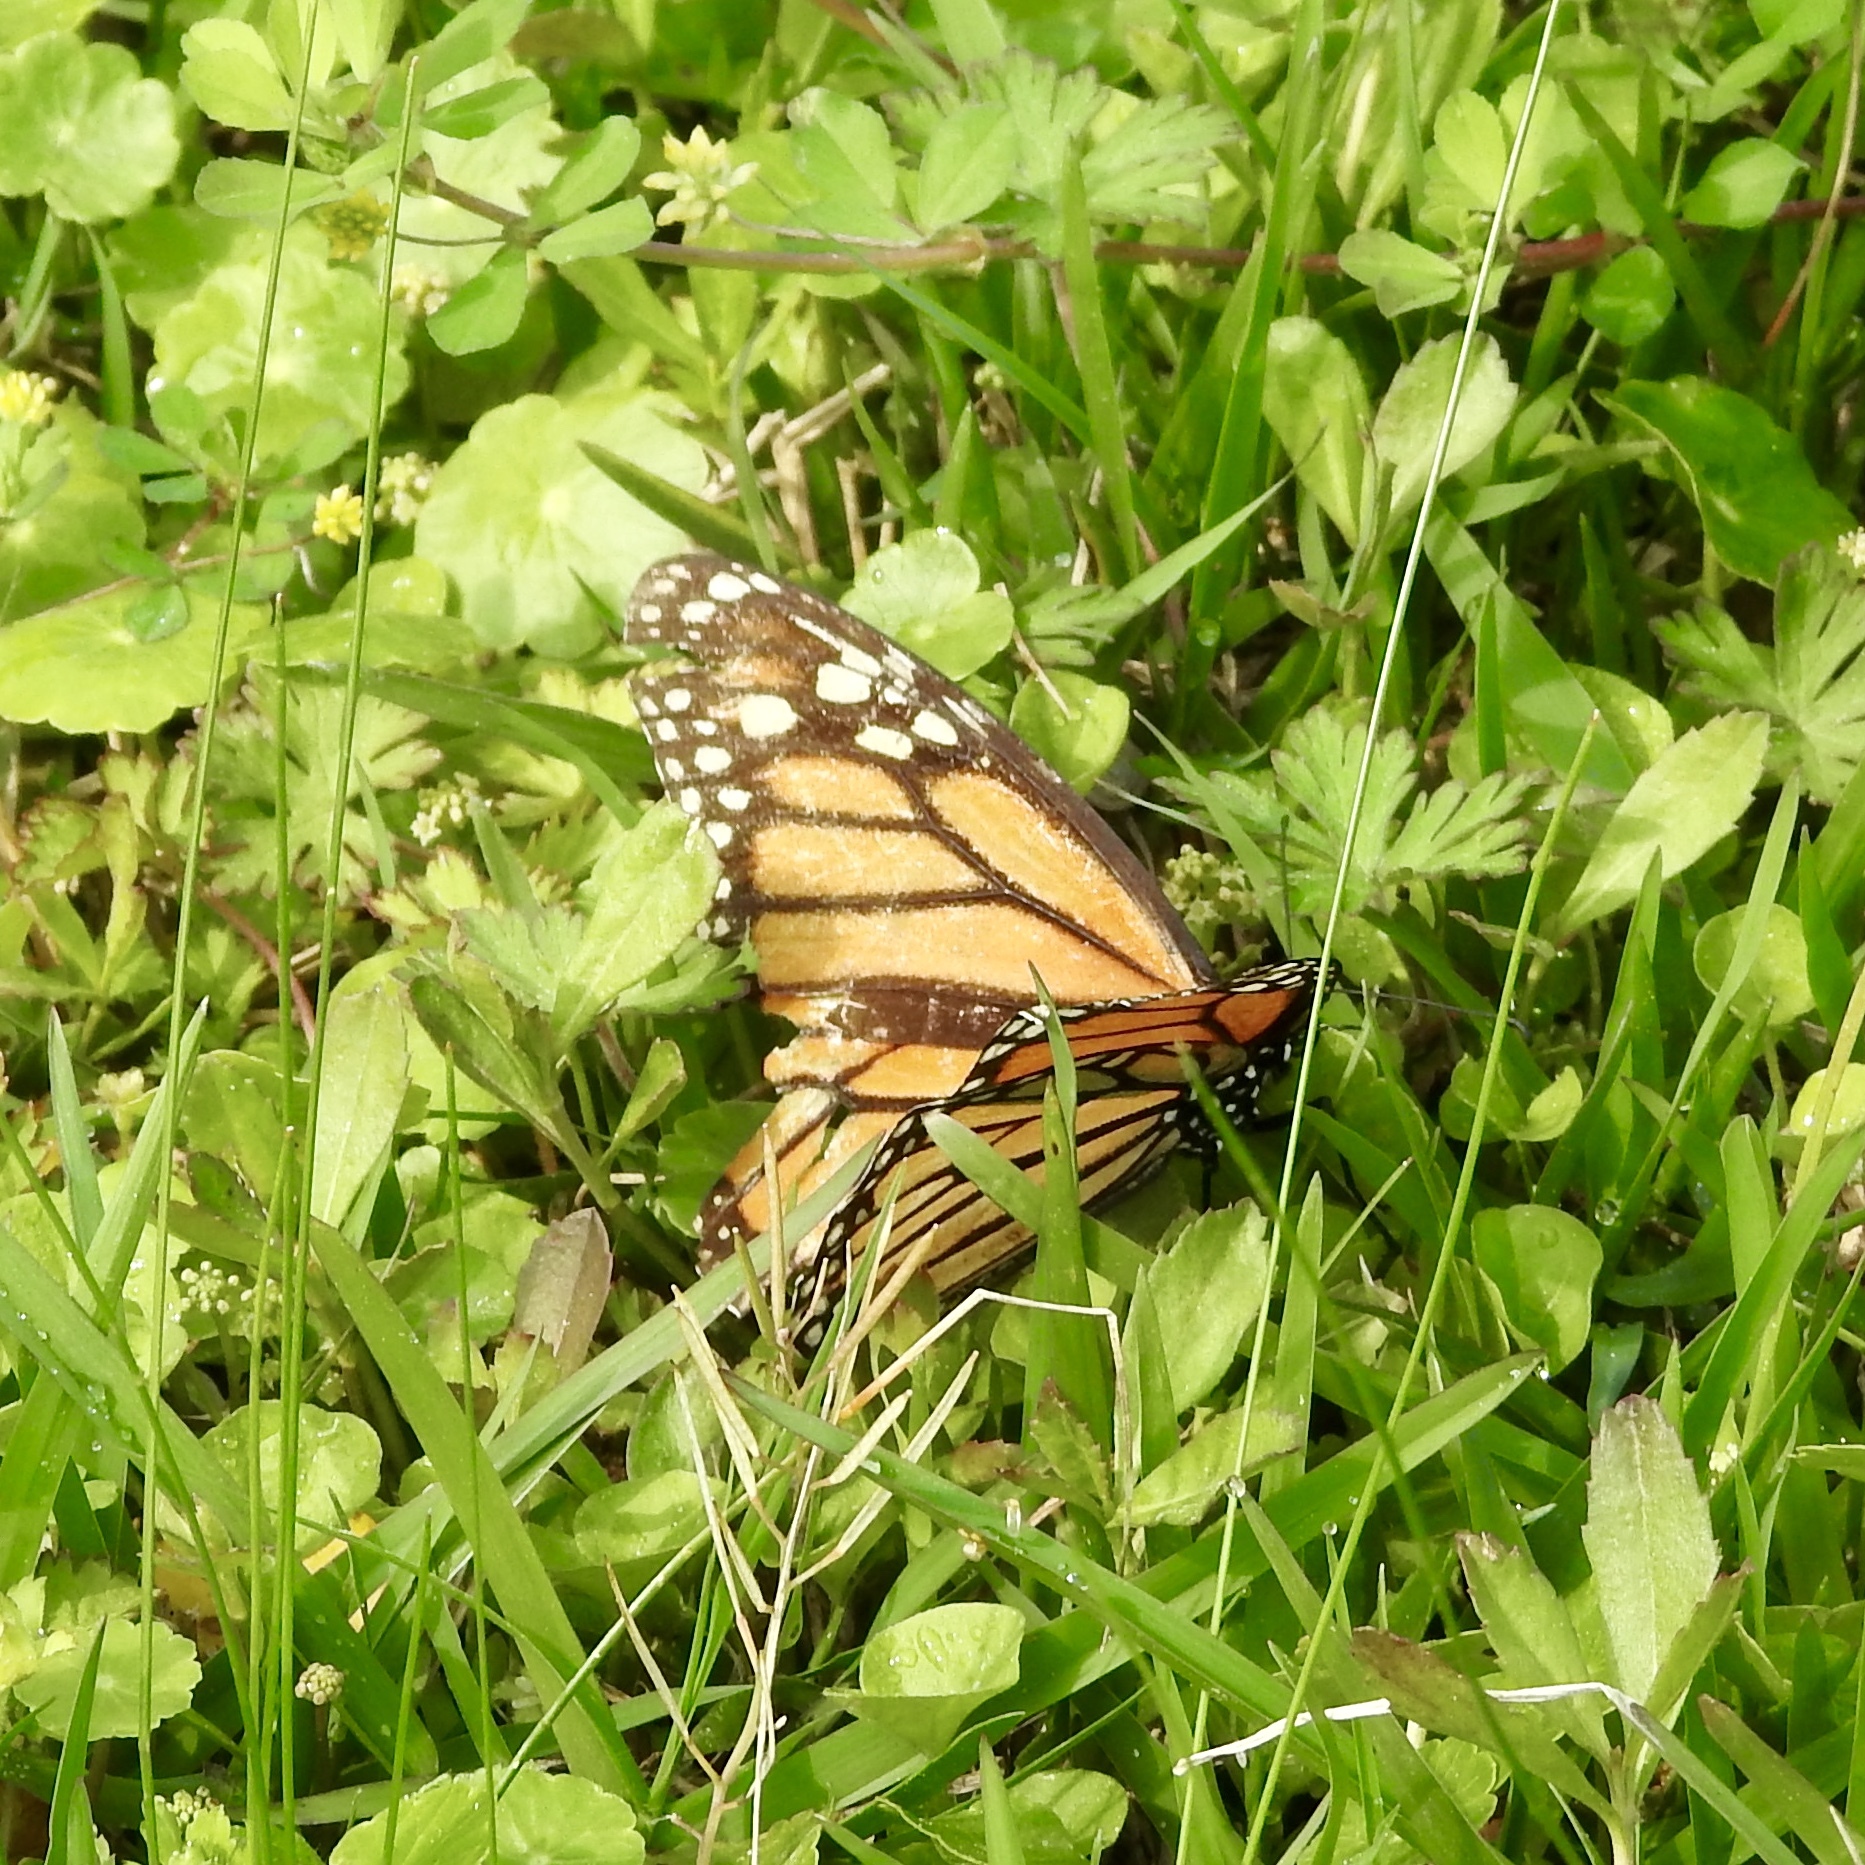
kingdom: Animalia
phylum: Arthropoda
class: Insecta
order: Lepidoptera
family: Nymphalidae
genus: Danaus
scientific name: Danaus plexippus
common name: Monarch
